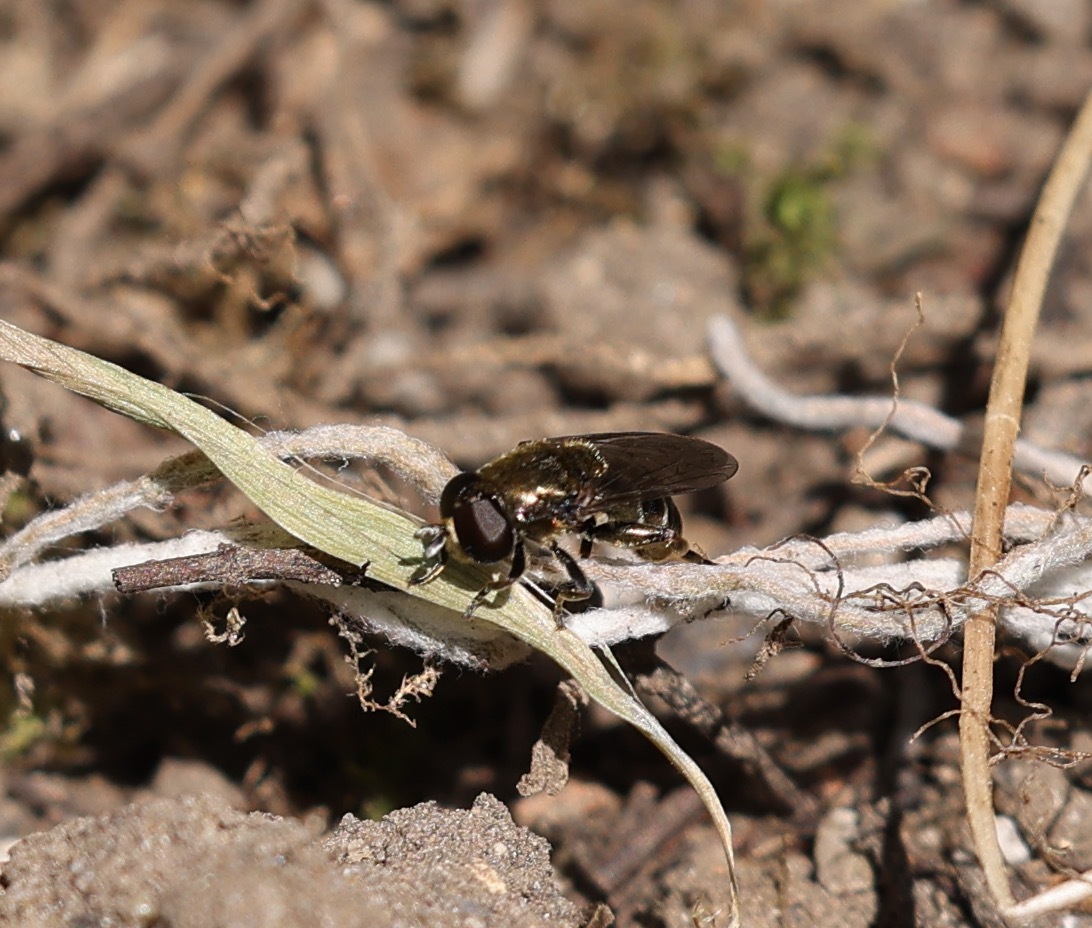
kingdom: Animalia
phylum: Arthropoda
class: Insecta
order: Diptera
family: Syrphidae
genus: Eumerus
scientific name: Eumerus
